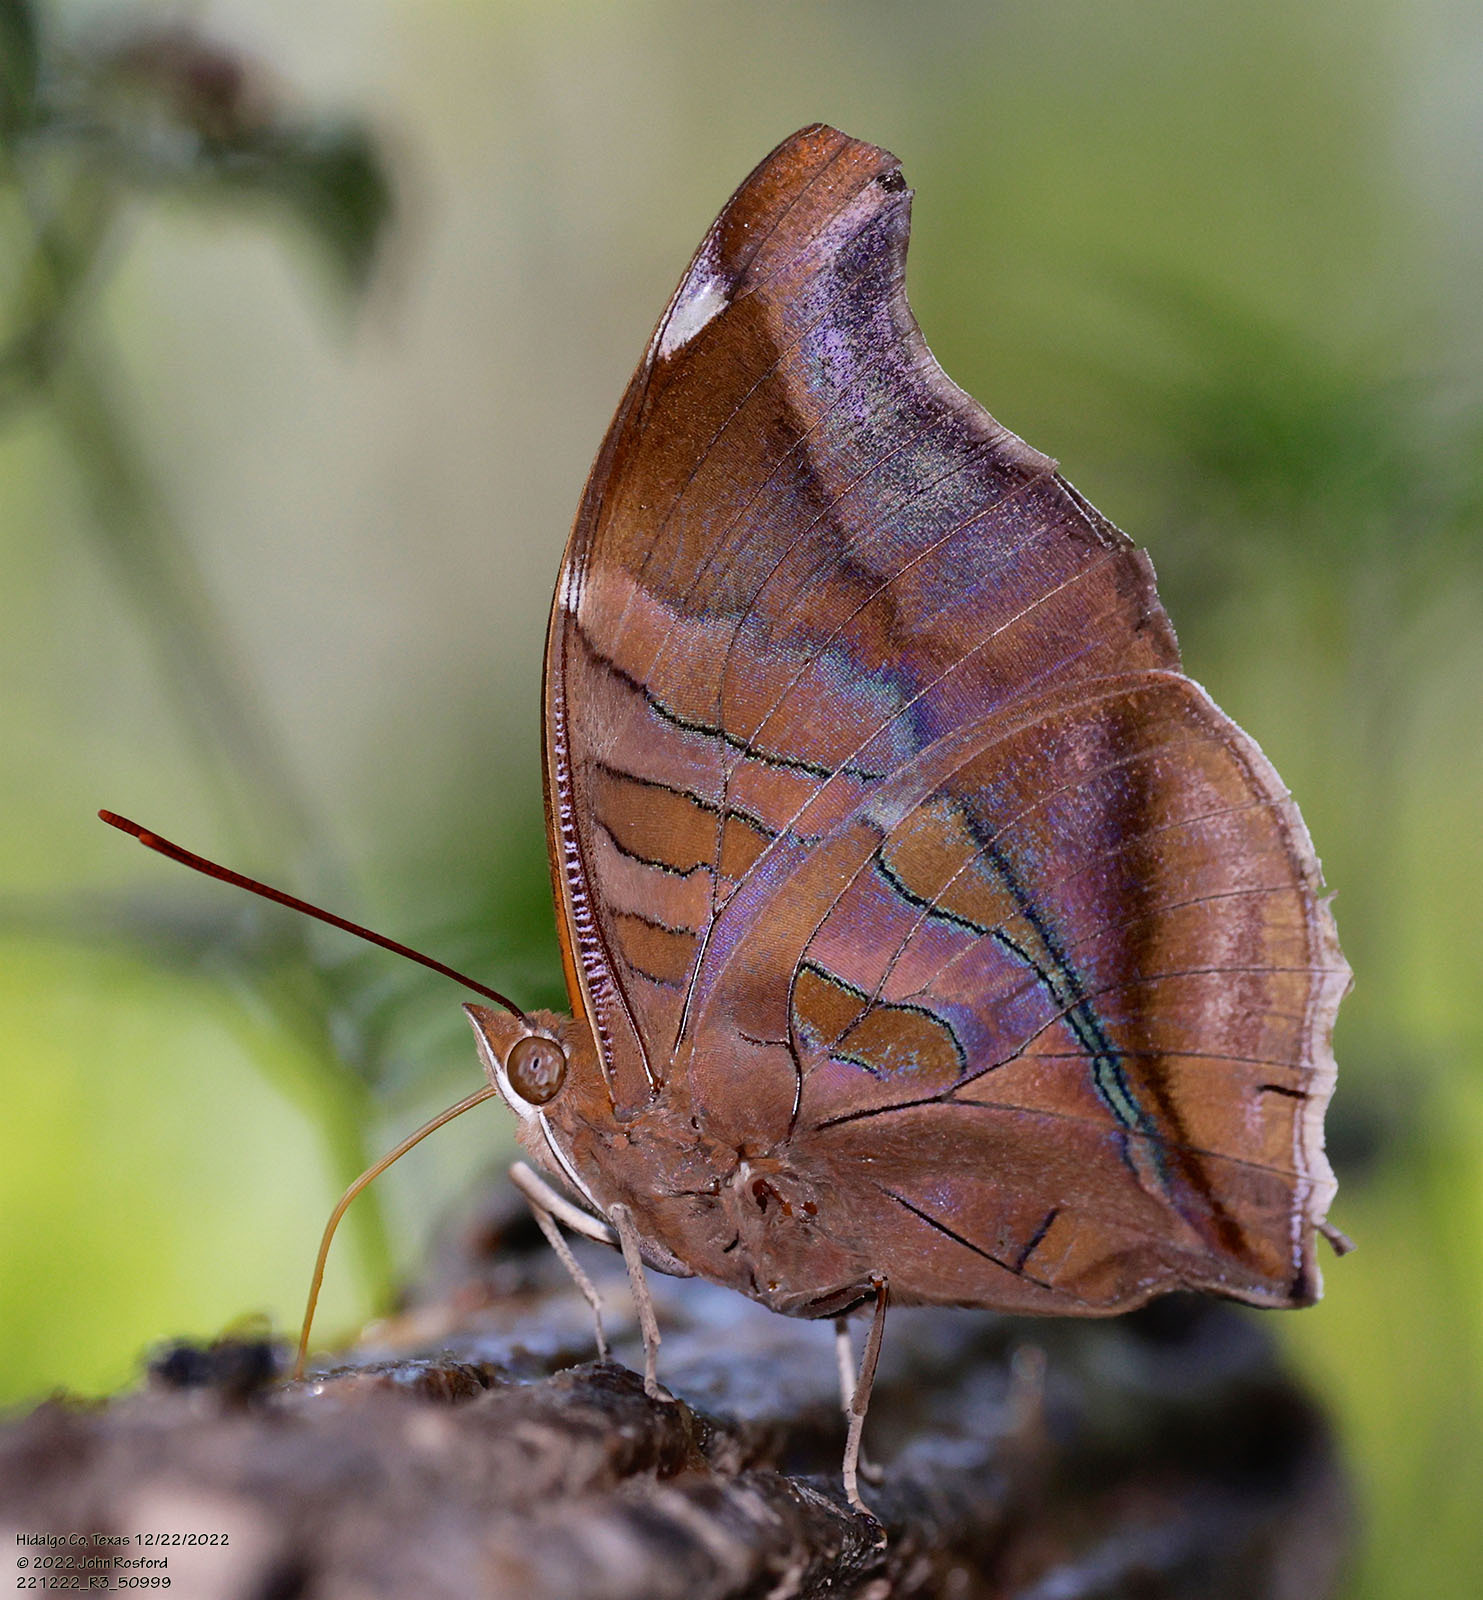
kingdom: Animalia
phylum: Arthropoda
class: Insecta
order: Lepidoptera
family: Nymphalidae
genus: Historis
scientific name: Historis odius
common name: Orion cecropian
